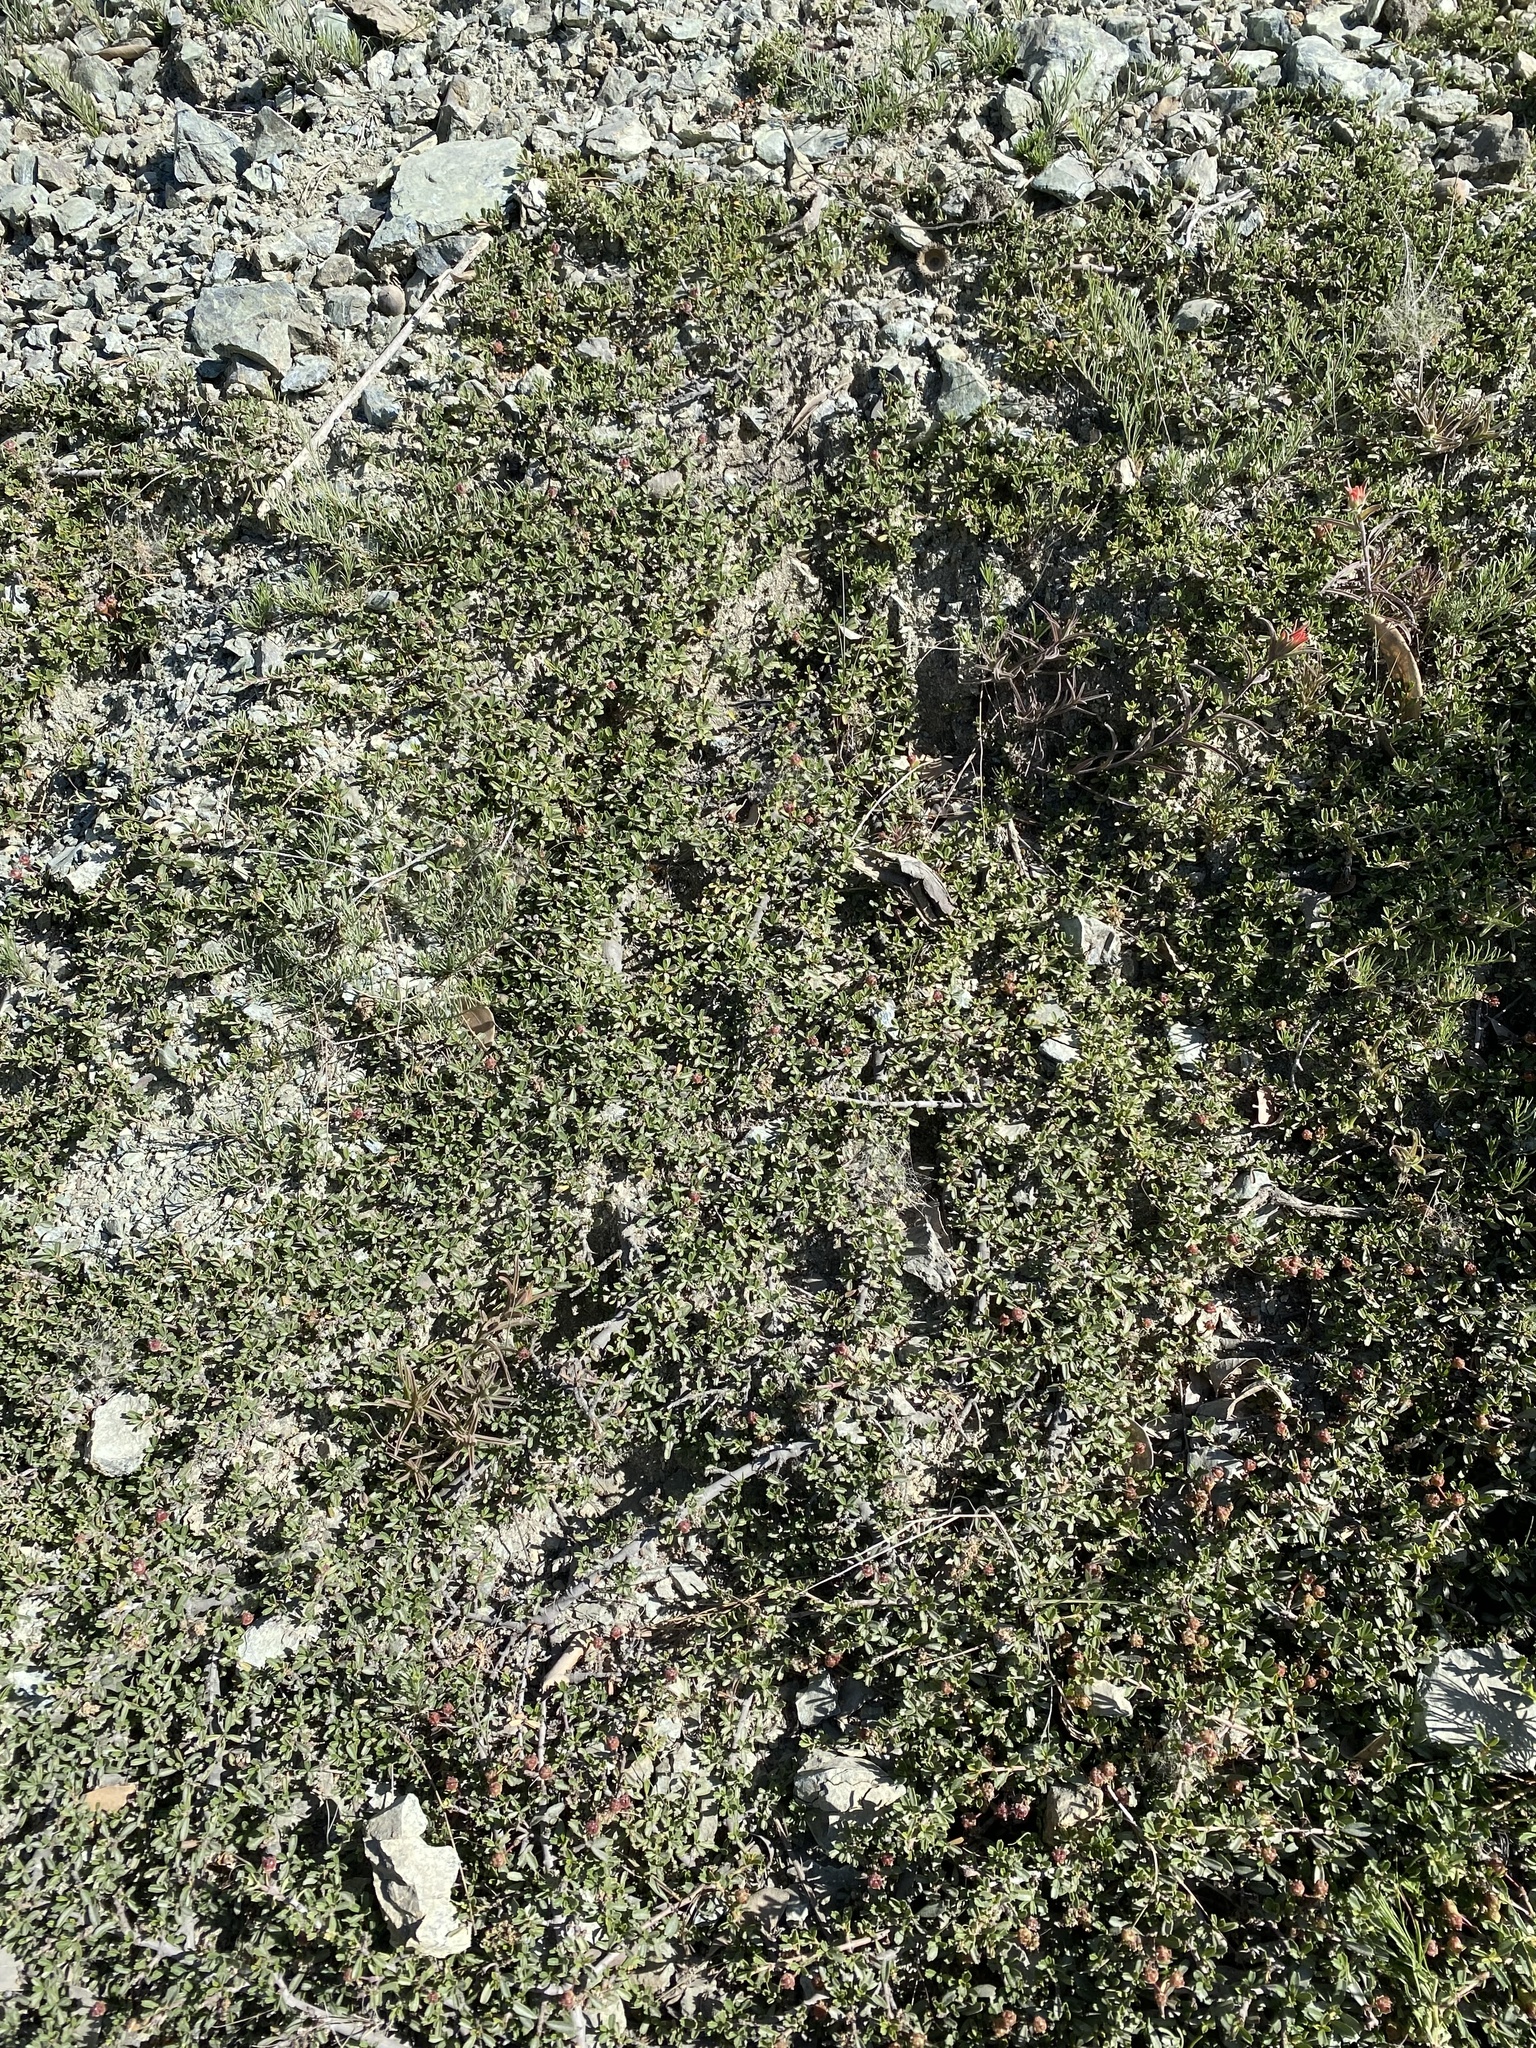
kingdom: Plantae
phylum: Tracheophyta
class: Magnoliopsida
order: Rosales
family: Rhamnaceae
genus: Ceanothus
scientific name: Ceanothus pumilus
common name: Siskiyou-mat
